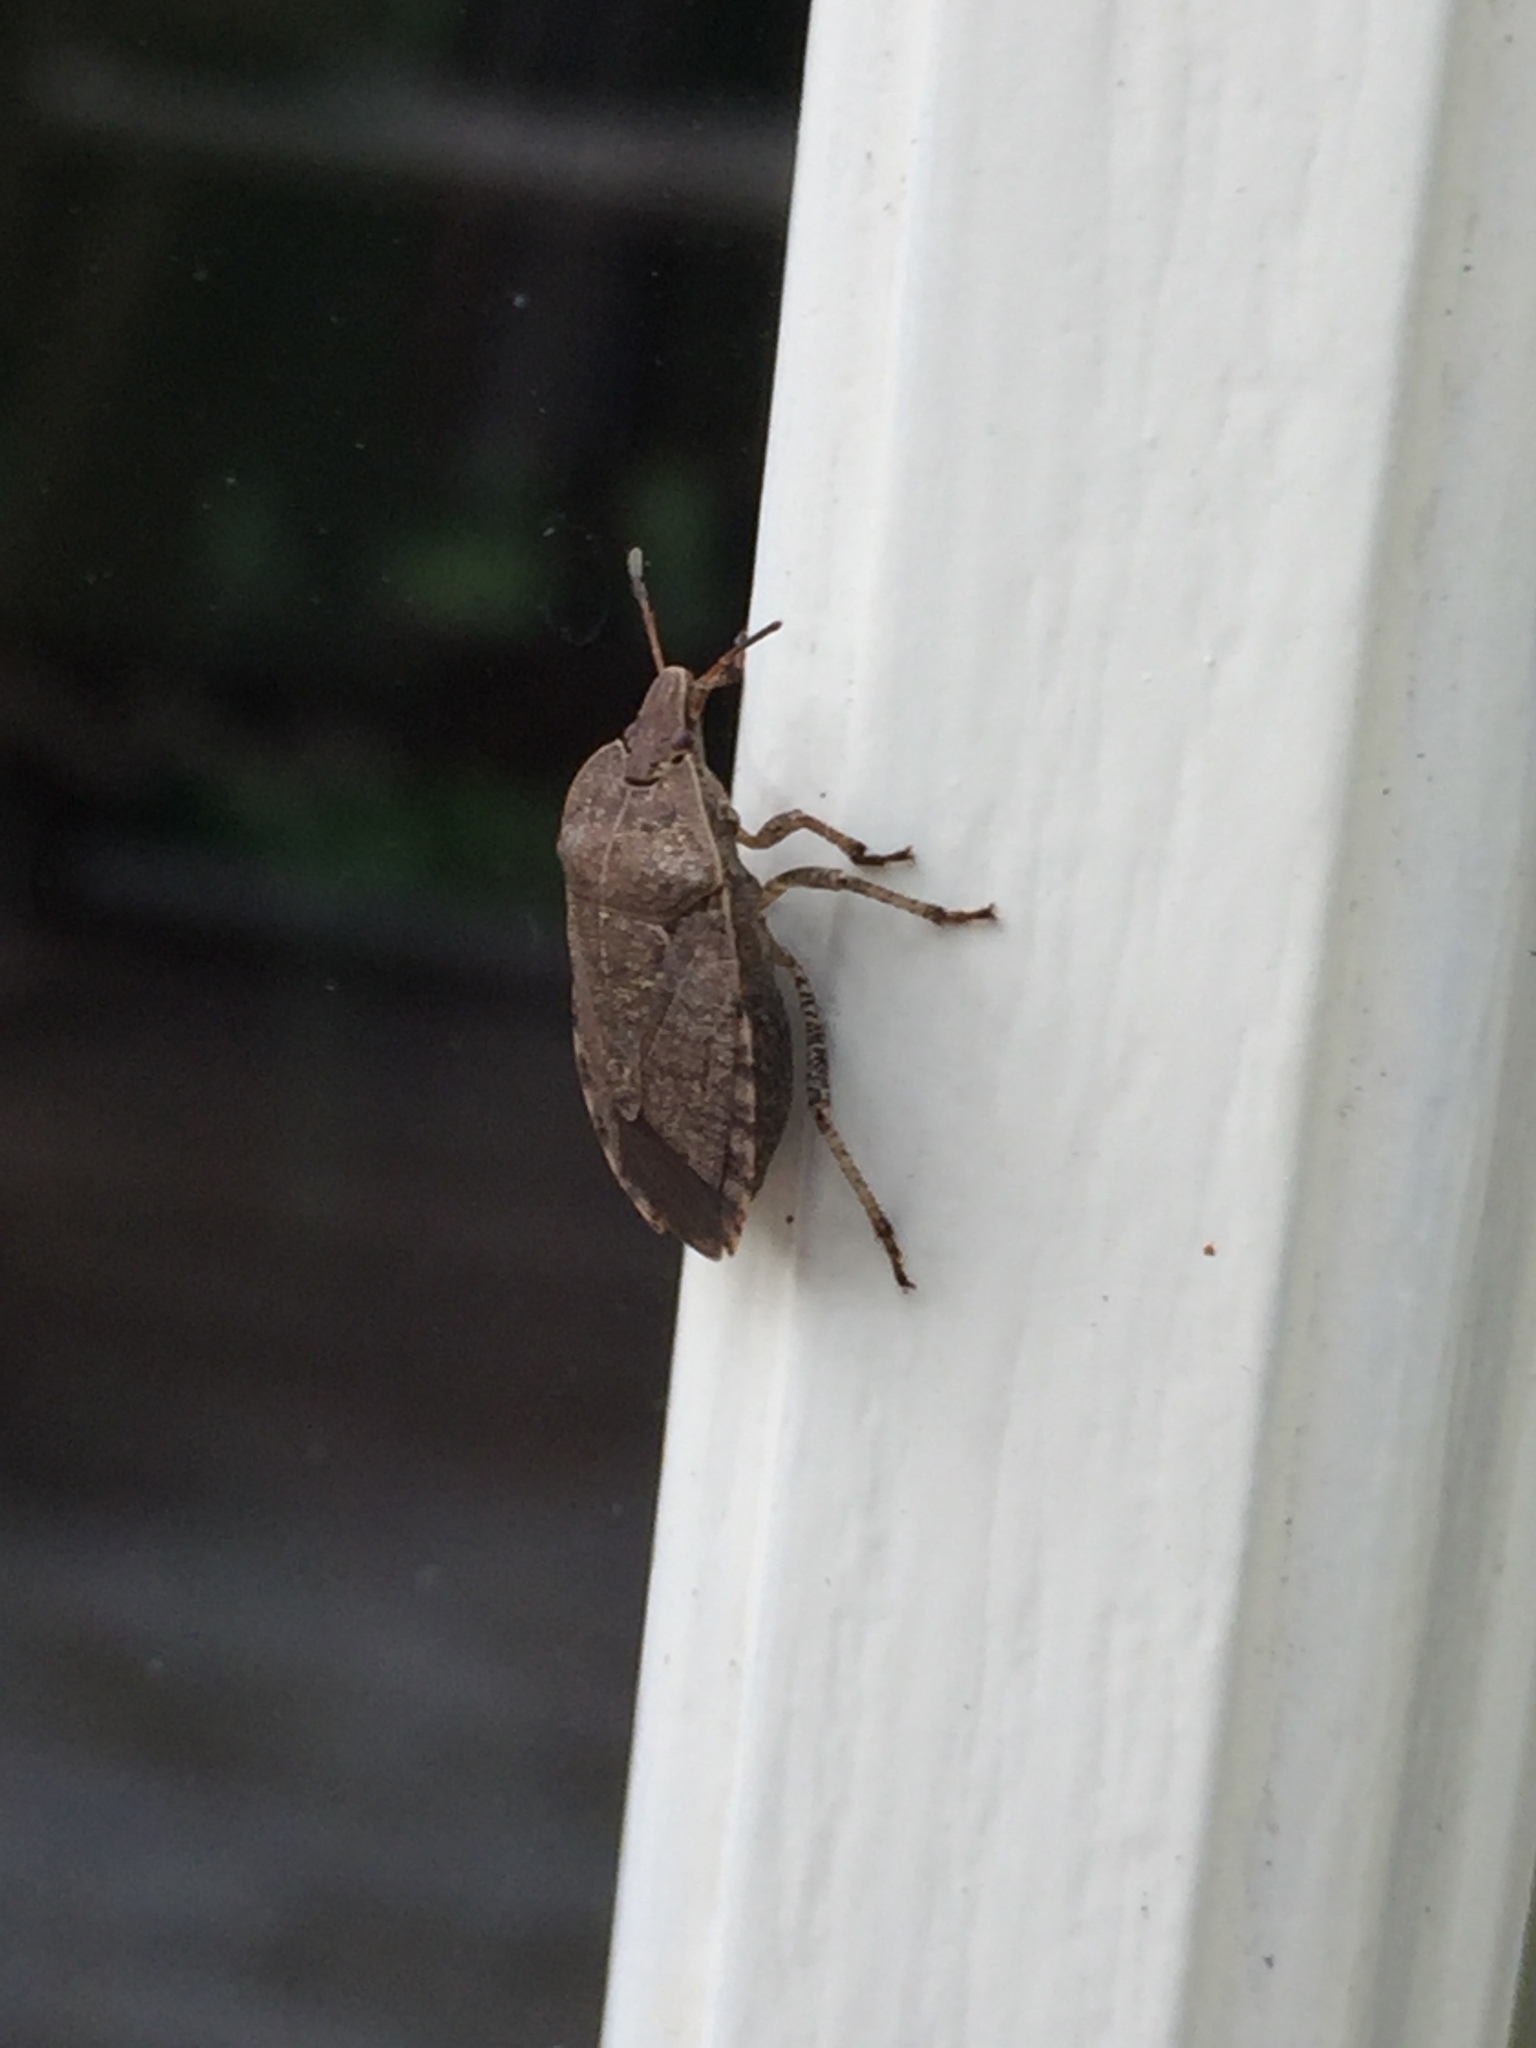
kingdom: Animalia
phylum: Arthropoda
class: Insecta
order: Hemiptera
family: Pentatomidae
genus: Menecles
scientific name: Menecles insertus
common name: Elf shoe stink bug
